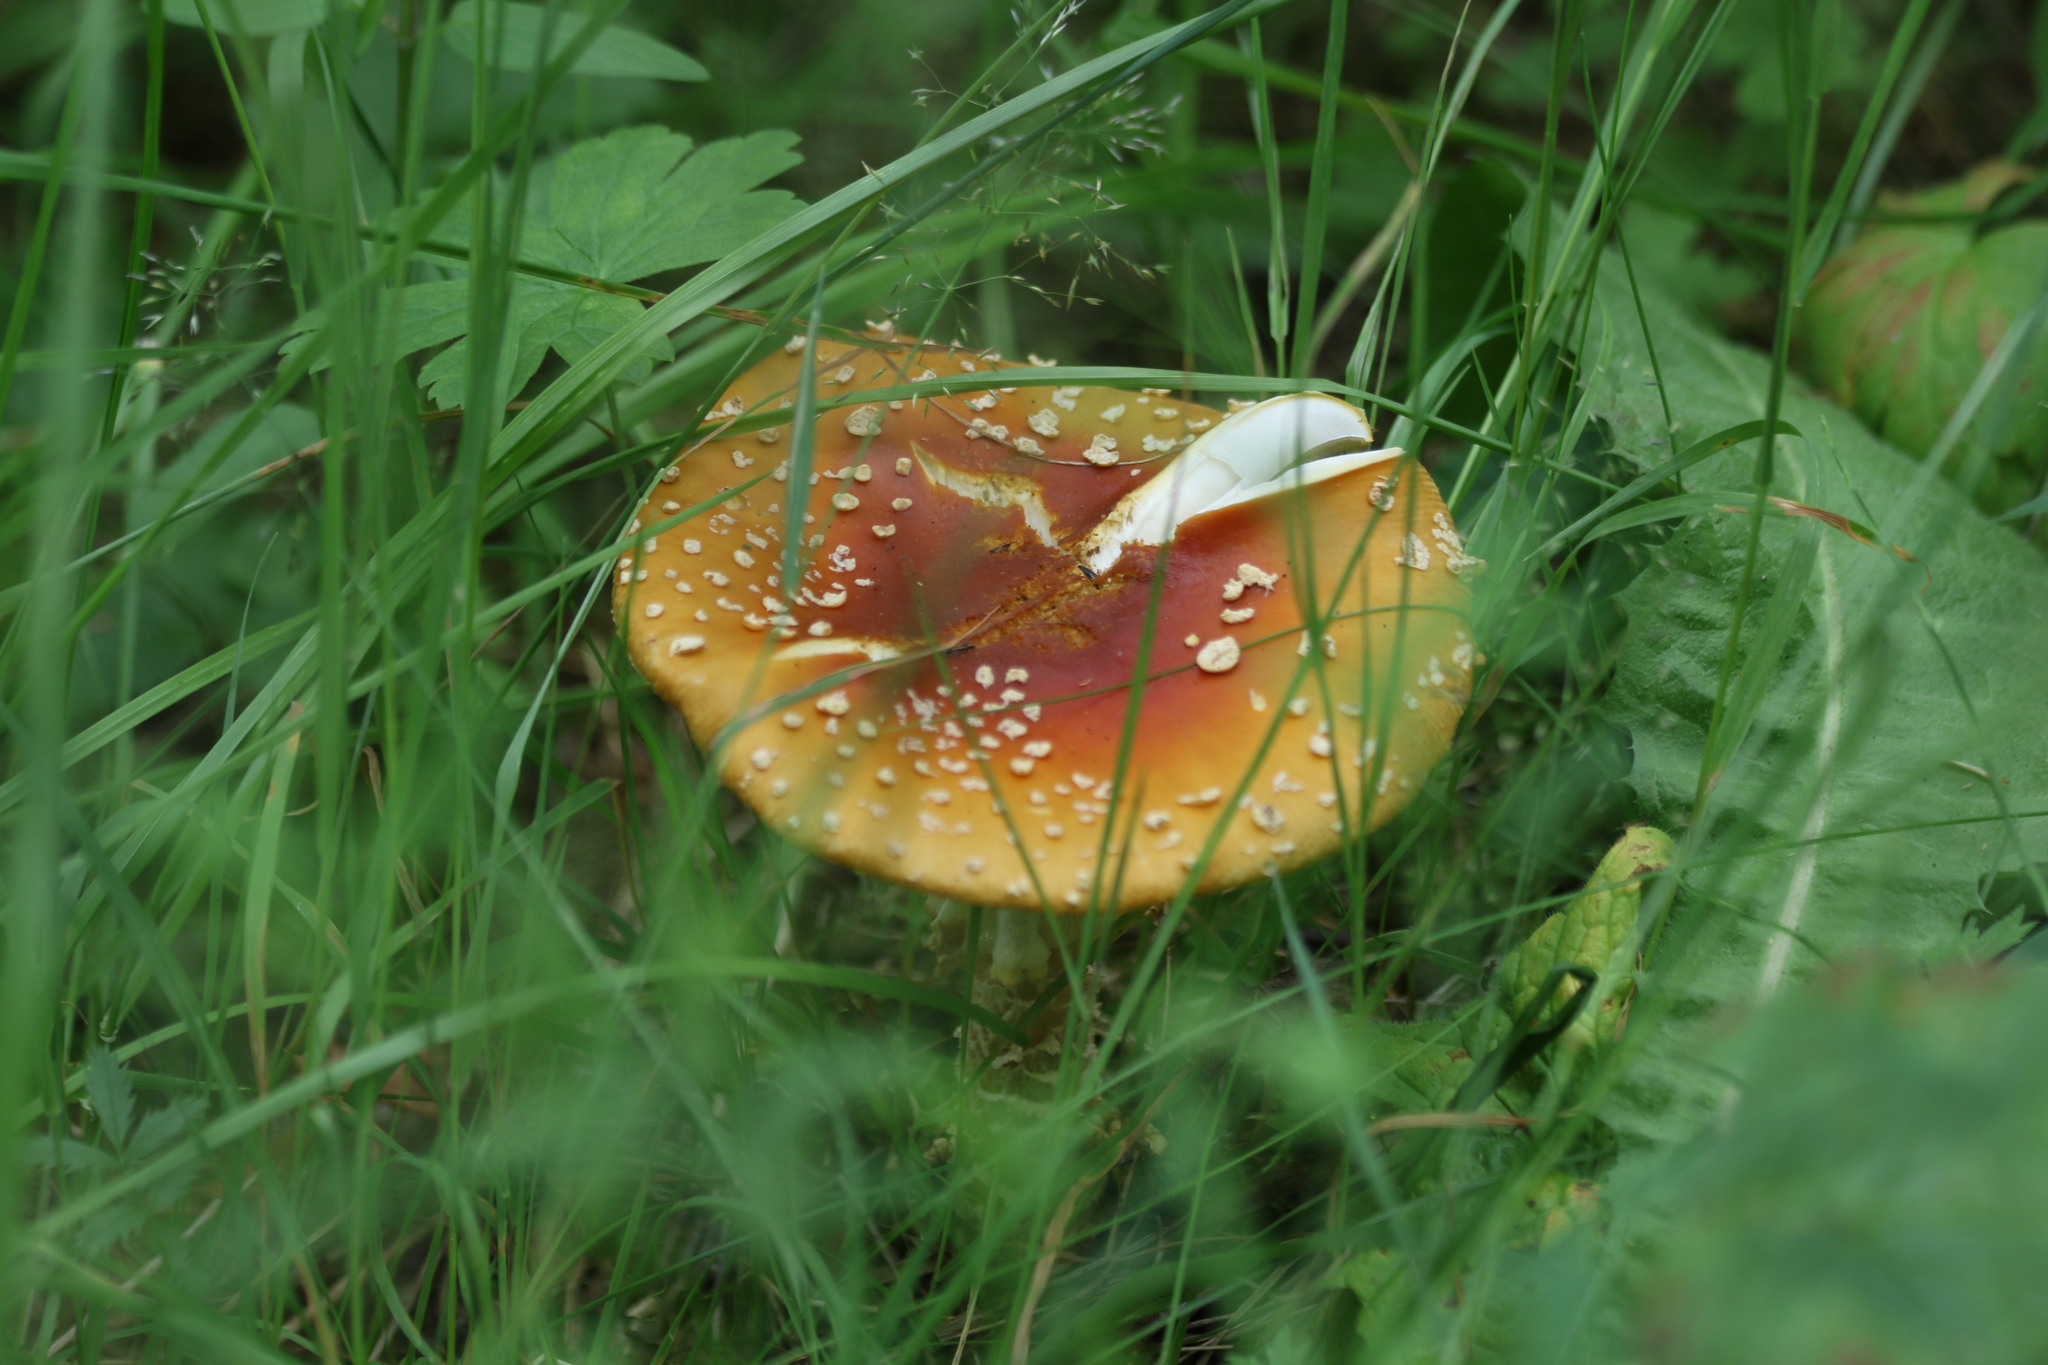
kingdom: Fungi
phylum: Basidiomycota
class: Agaricomycetes
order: Agaricales
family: Amanitaceae
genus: Amanita
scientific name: Amanita regalis
